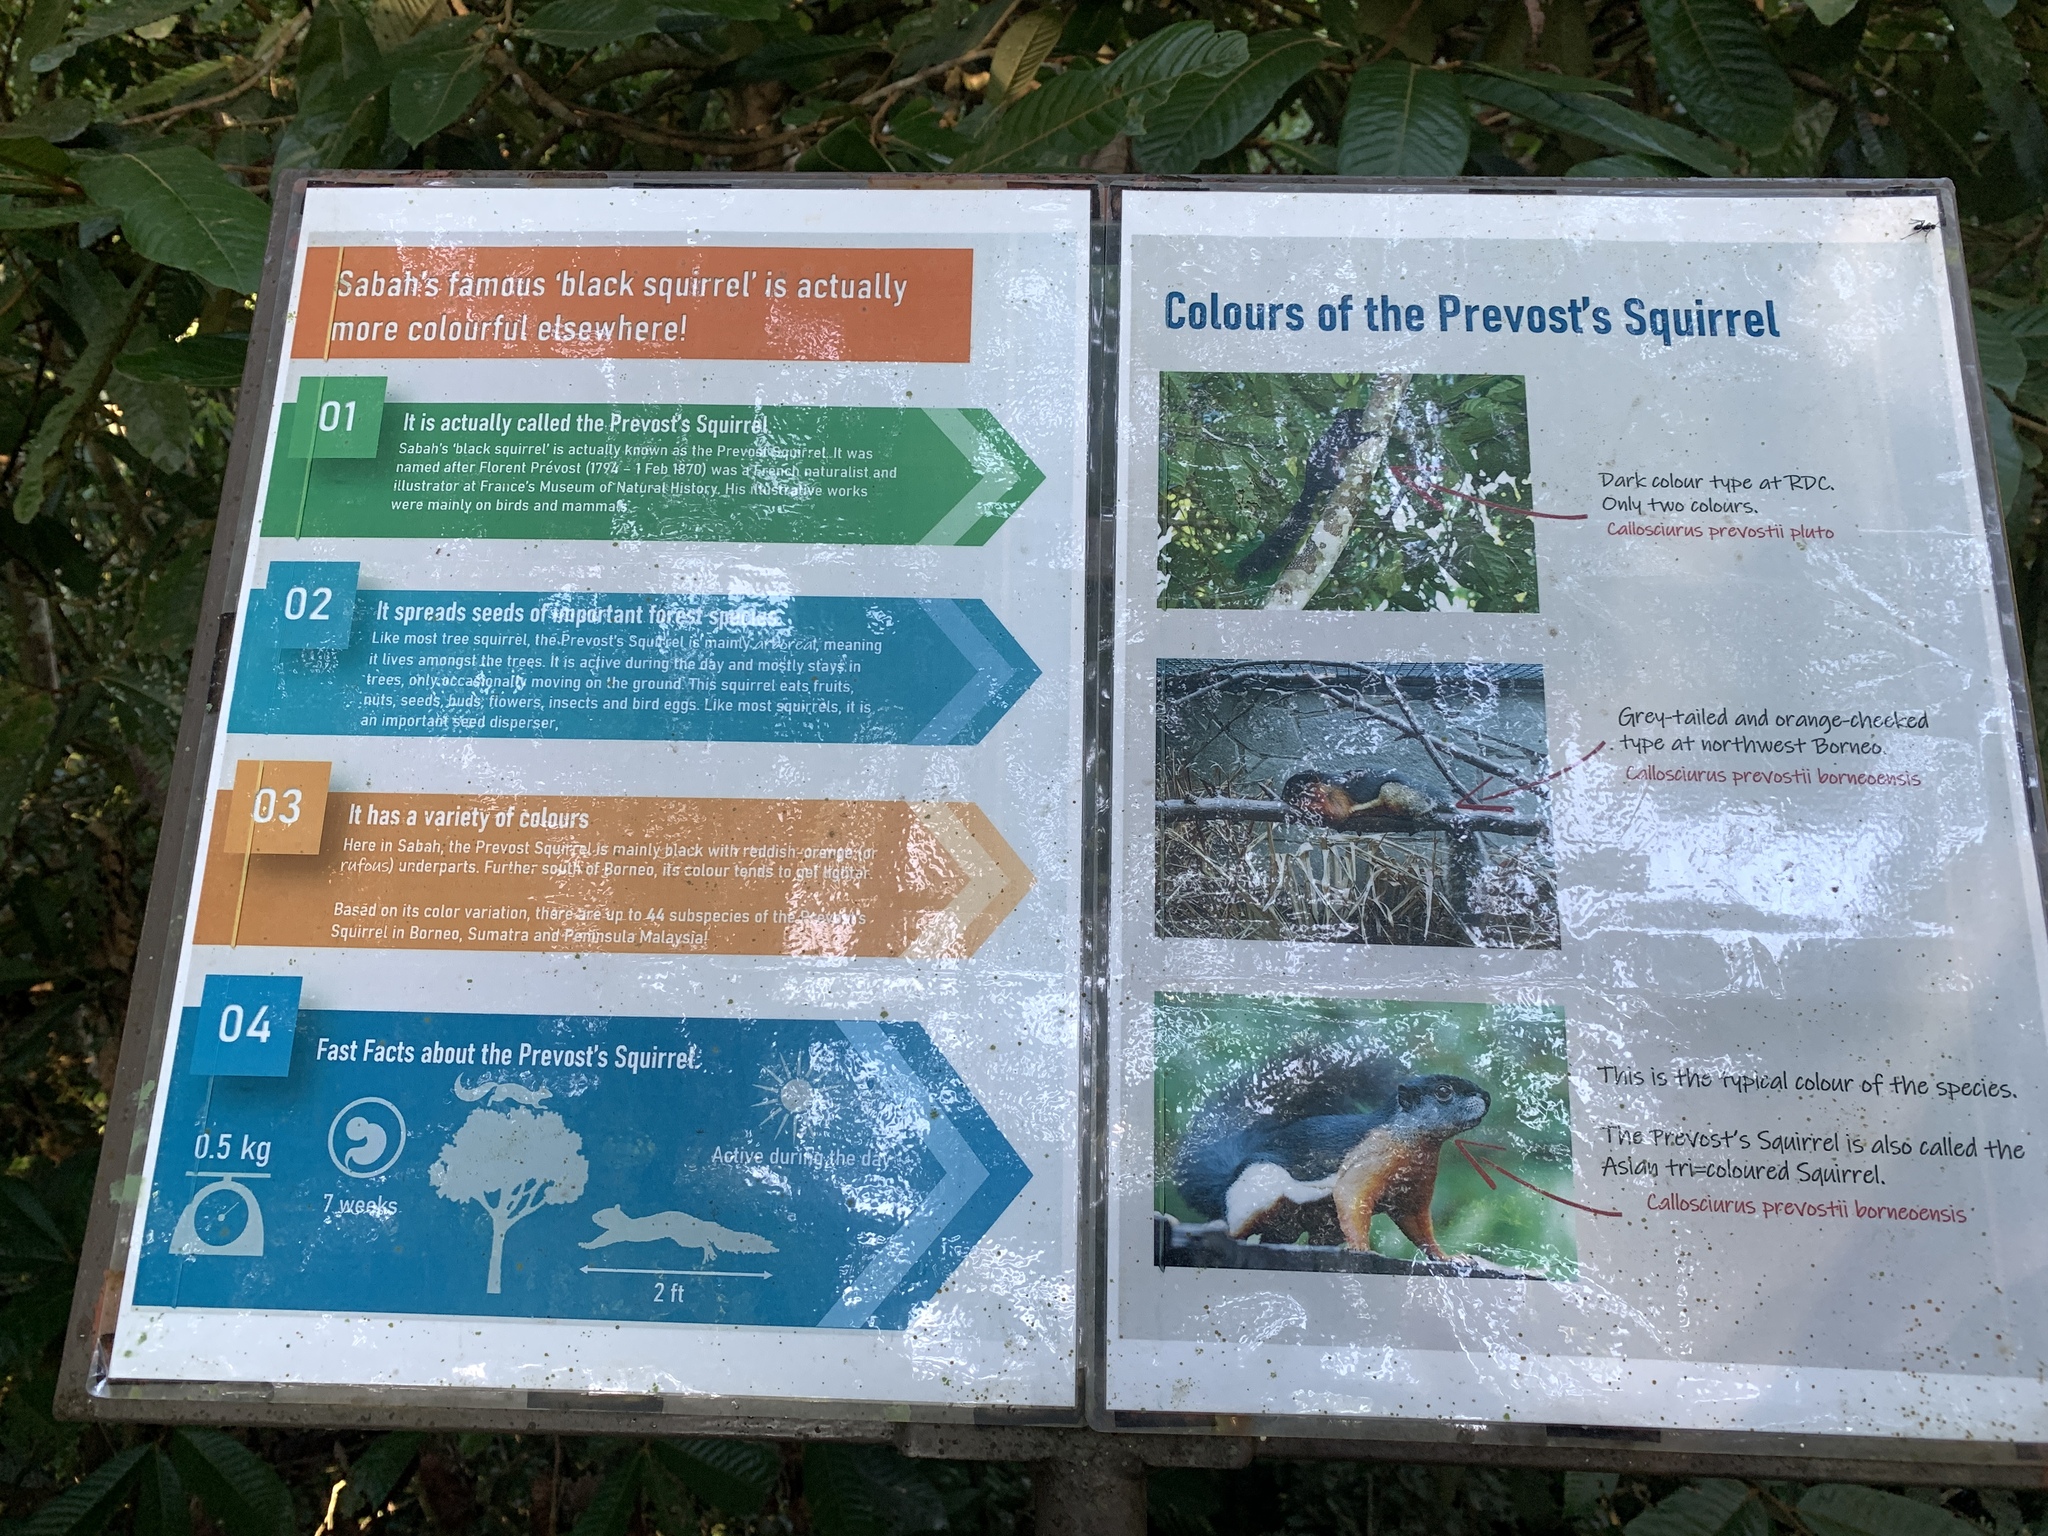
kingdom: Animalia
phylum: Chordata
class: Mammalia
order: Primates
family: Cercopithecidae
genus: Macaca
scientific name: Macaca nemestrina
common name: Southern pig-tailed macaque
